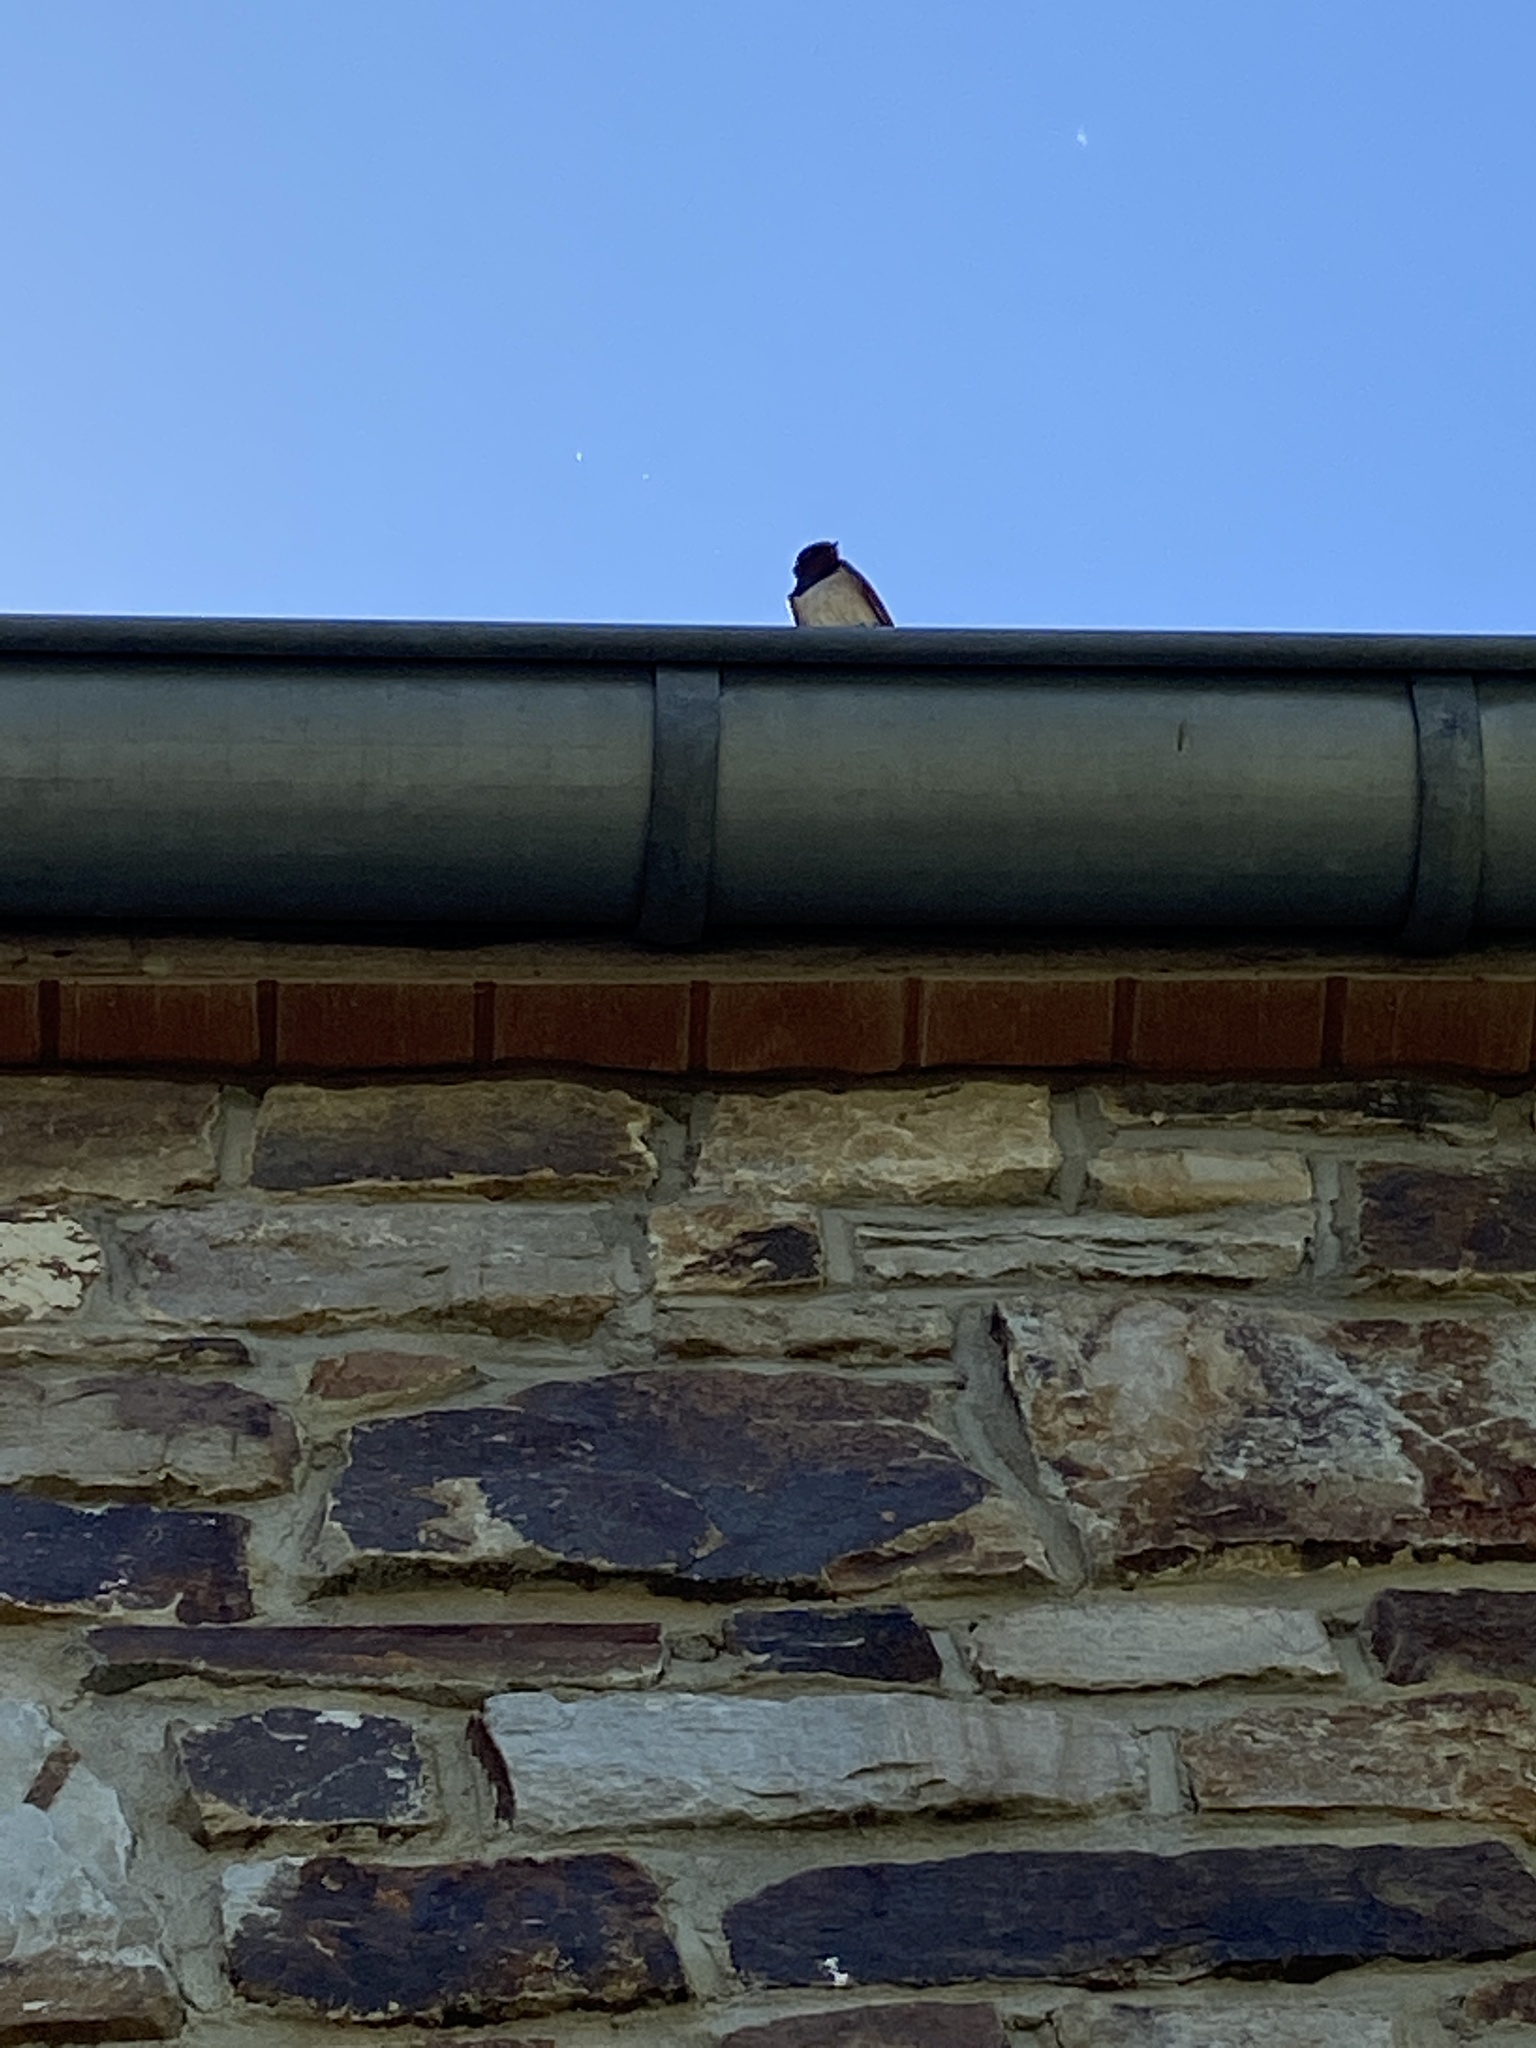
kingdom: Animalia
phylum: Chordata
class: Aves
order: Passeriformes
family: Hirundinidae
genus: Hirundo
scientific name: Hirundo rustica
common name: Barn swallow
